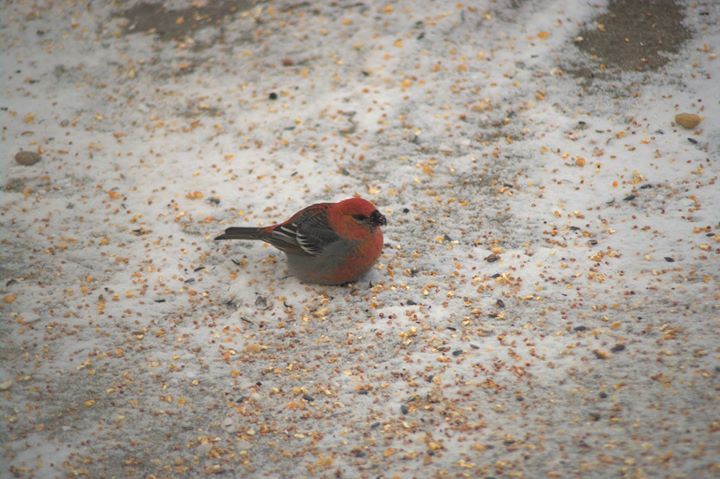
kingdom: Animalia
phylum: Chordata
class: Aves
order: Passeriformes
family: Fringillidae
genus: Pinicola
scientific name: Pinicola enucleator
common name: Pine grosbeak
